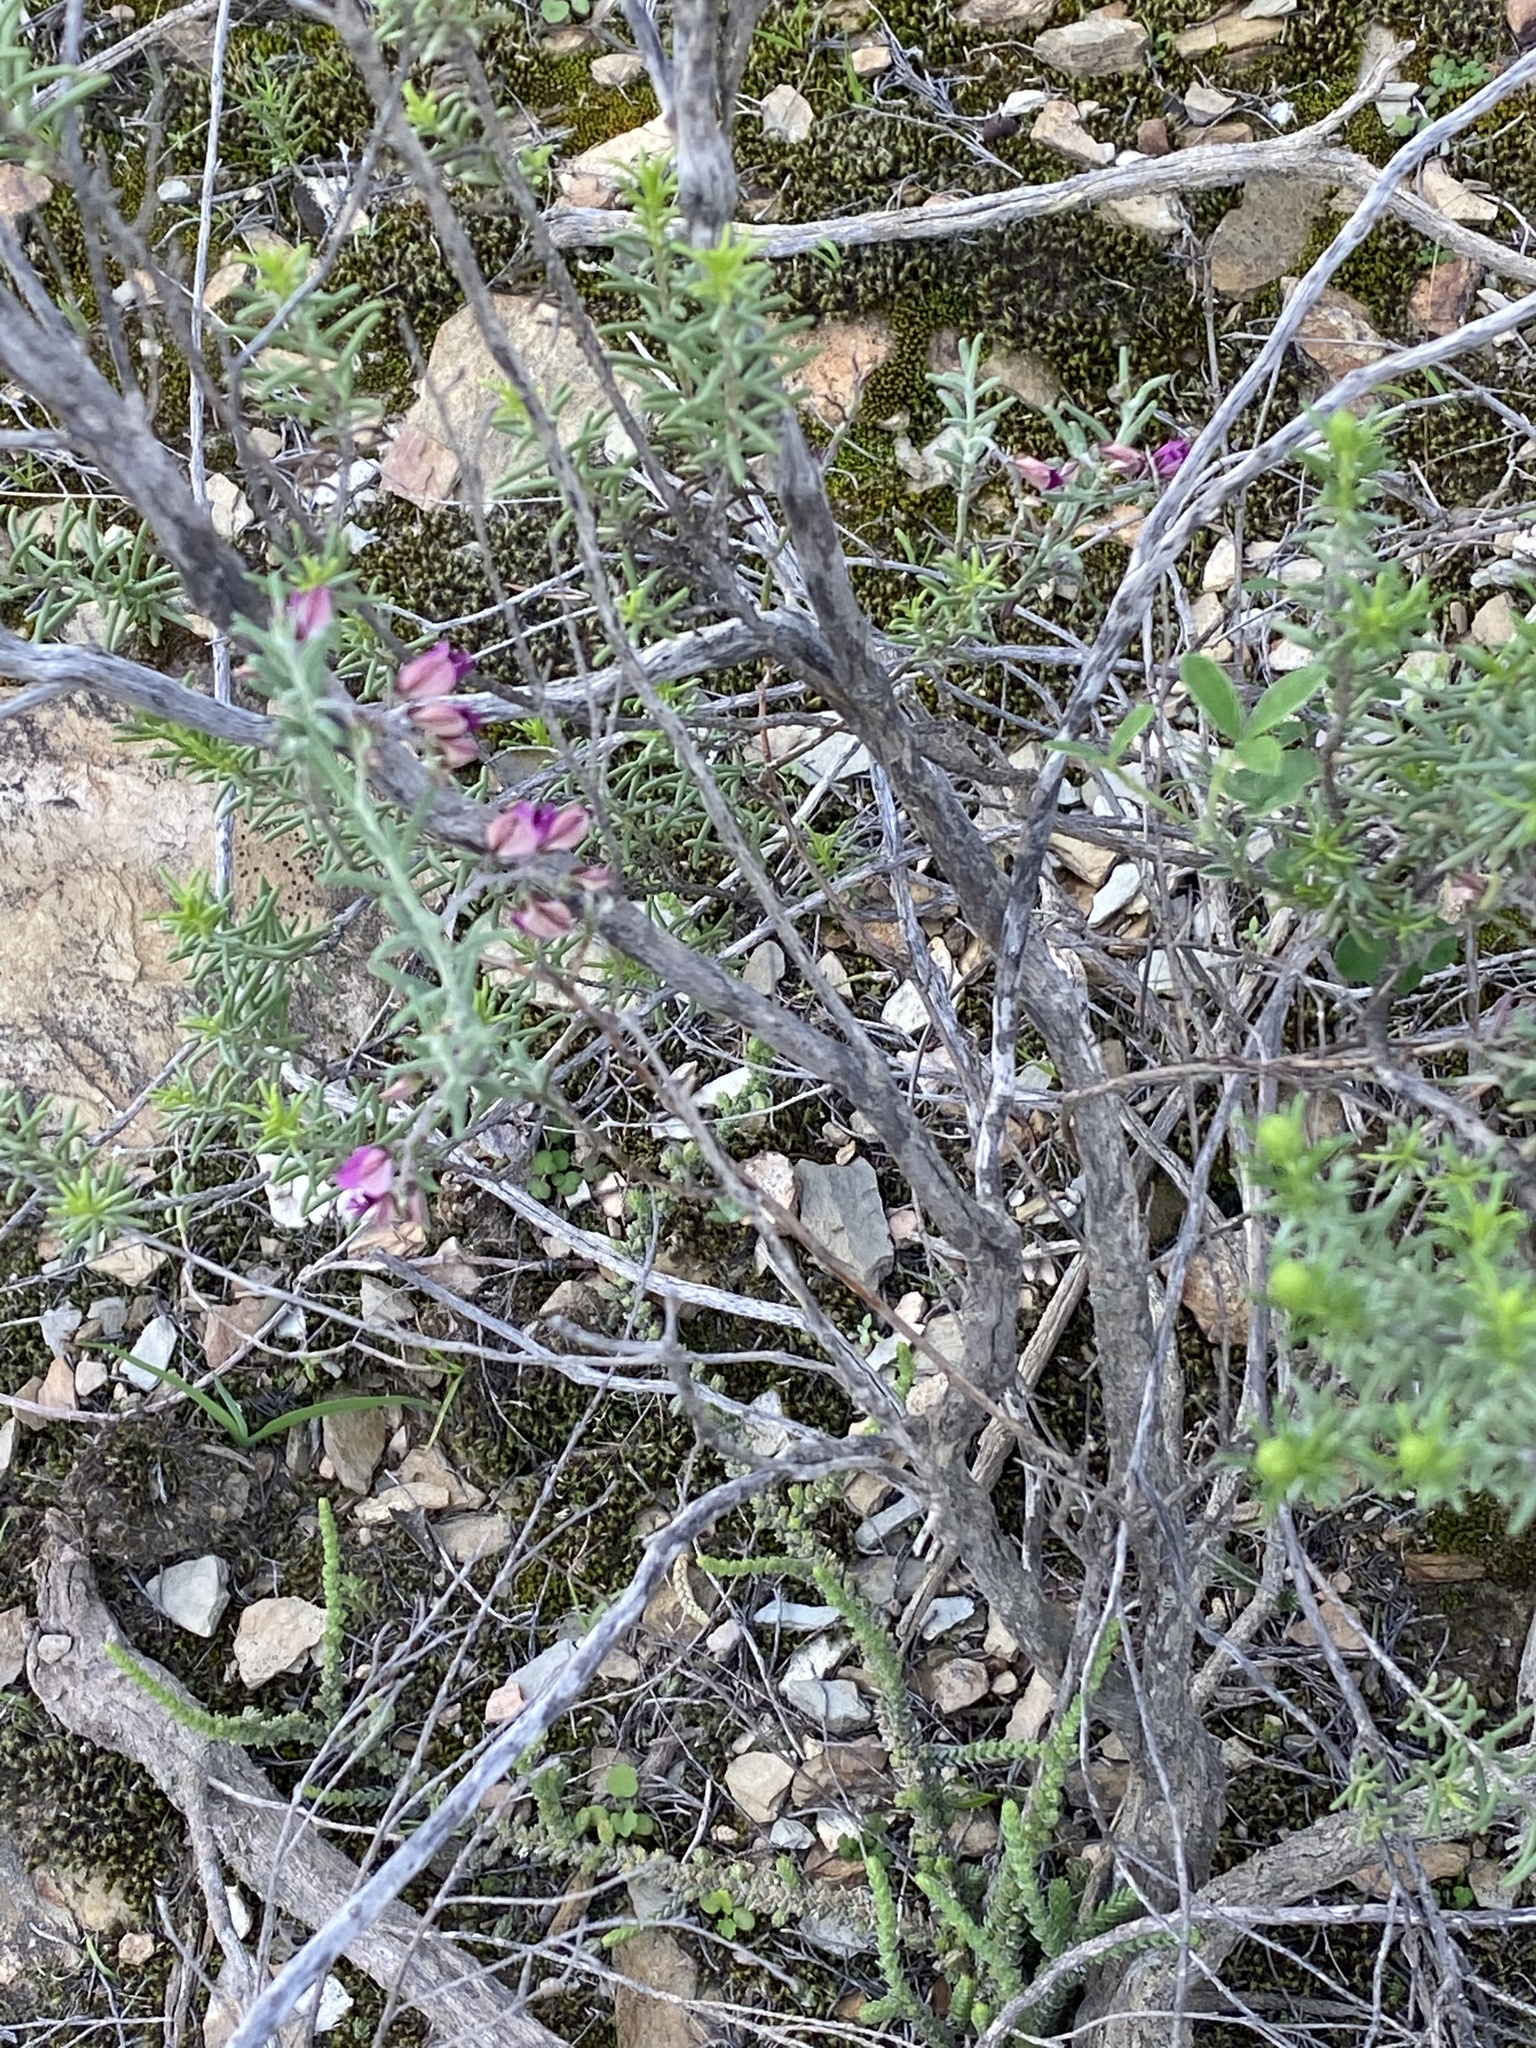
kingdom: Plantae
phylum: Tracheophyta
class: Magnoliopsida
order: Fabales
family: Polygalaceae
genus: Polygala
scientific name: Polygala scabra
